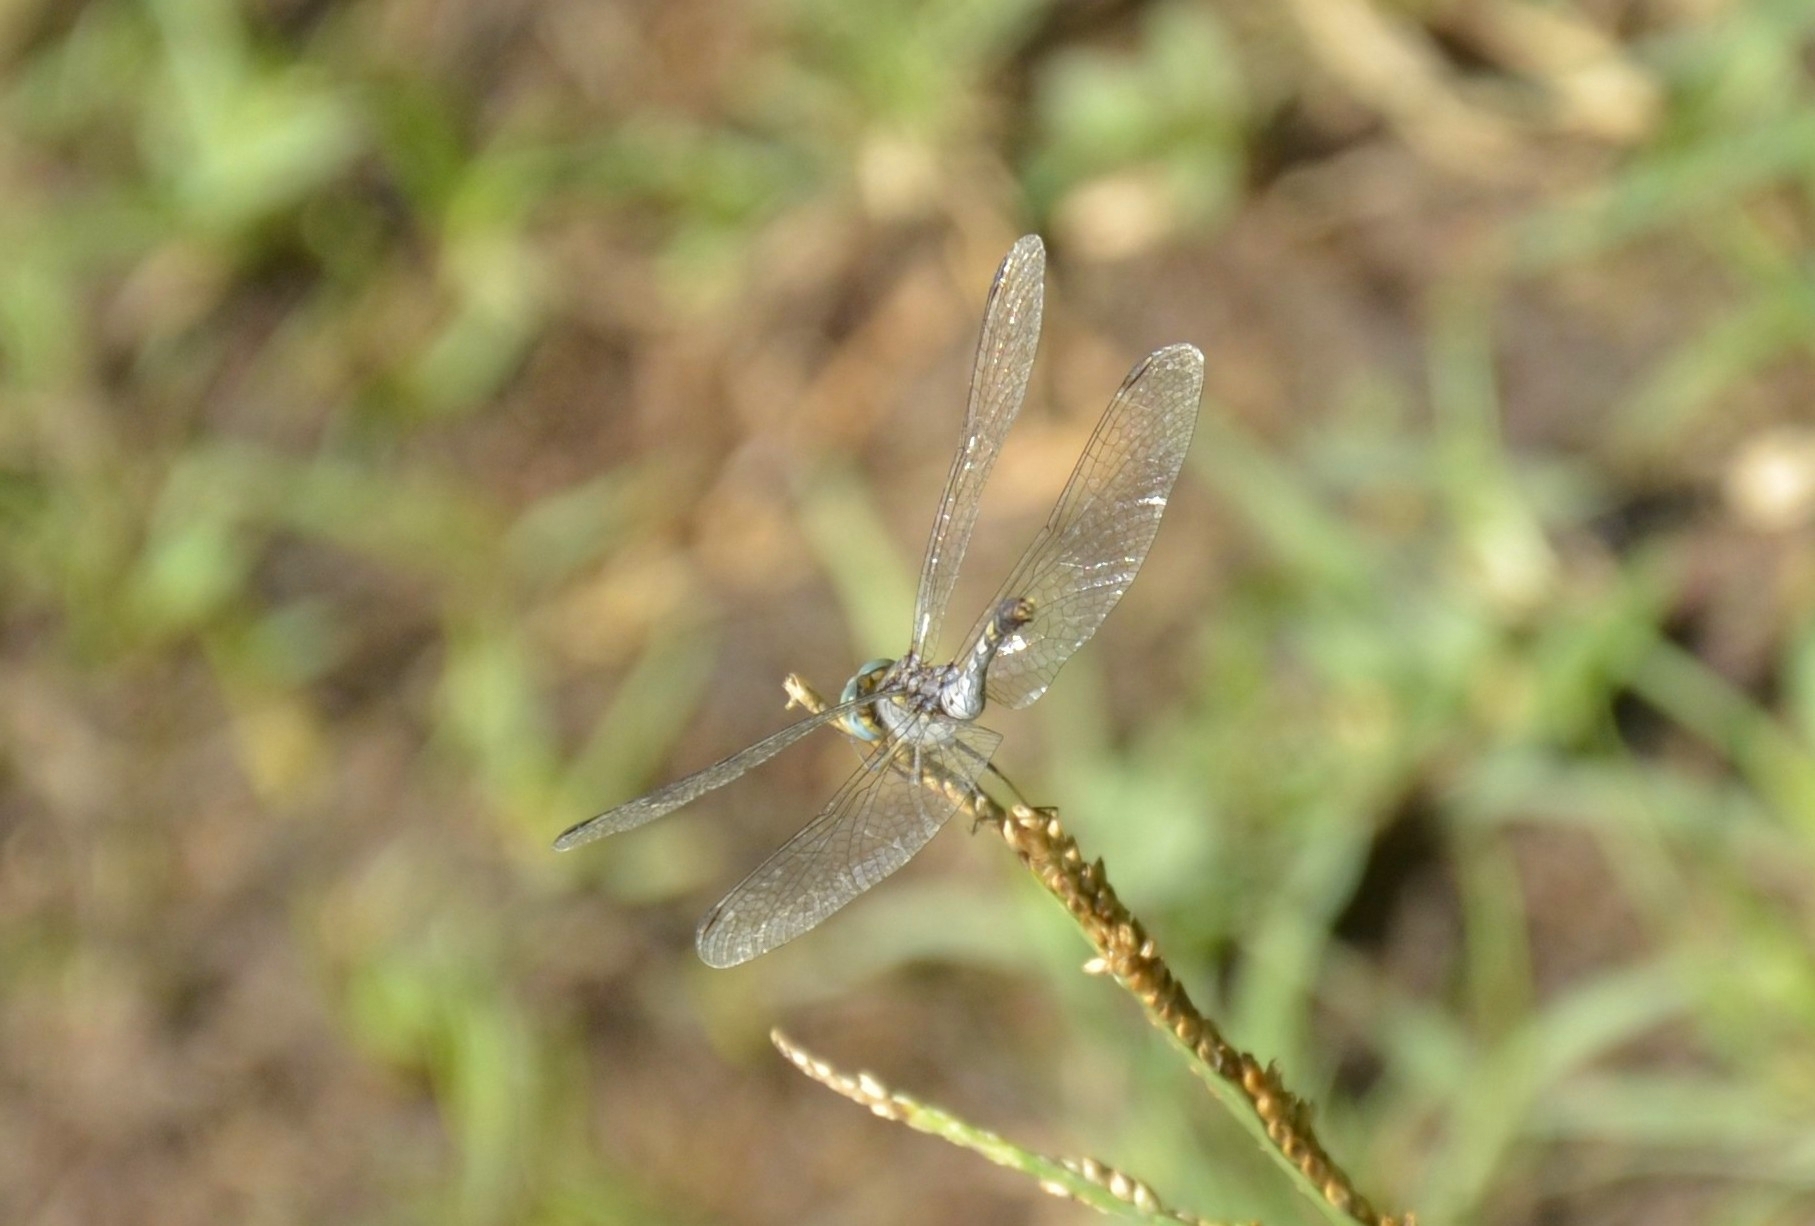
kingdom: Animalia
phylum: Arthropoda
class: Insecta
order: Odonata
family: Libellulidae
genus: Diplacodes
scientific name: Diplacodes trivialis
